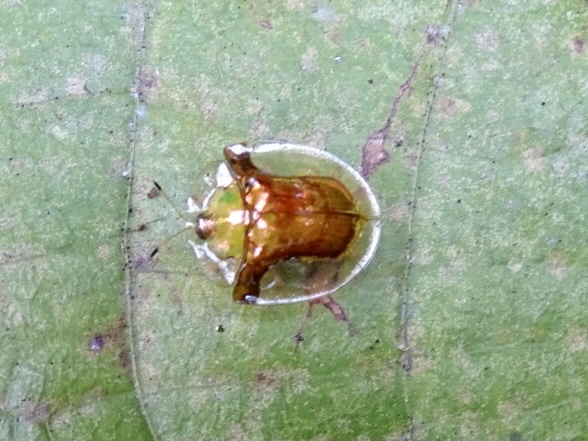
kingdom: Animalia
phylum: Arthropoda
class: Insecta
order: Coleoptera
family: Chrysomelidae
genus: Aspidimorpha
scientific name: Aspidimorpha furcata
